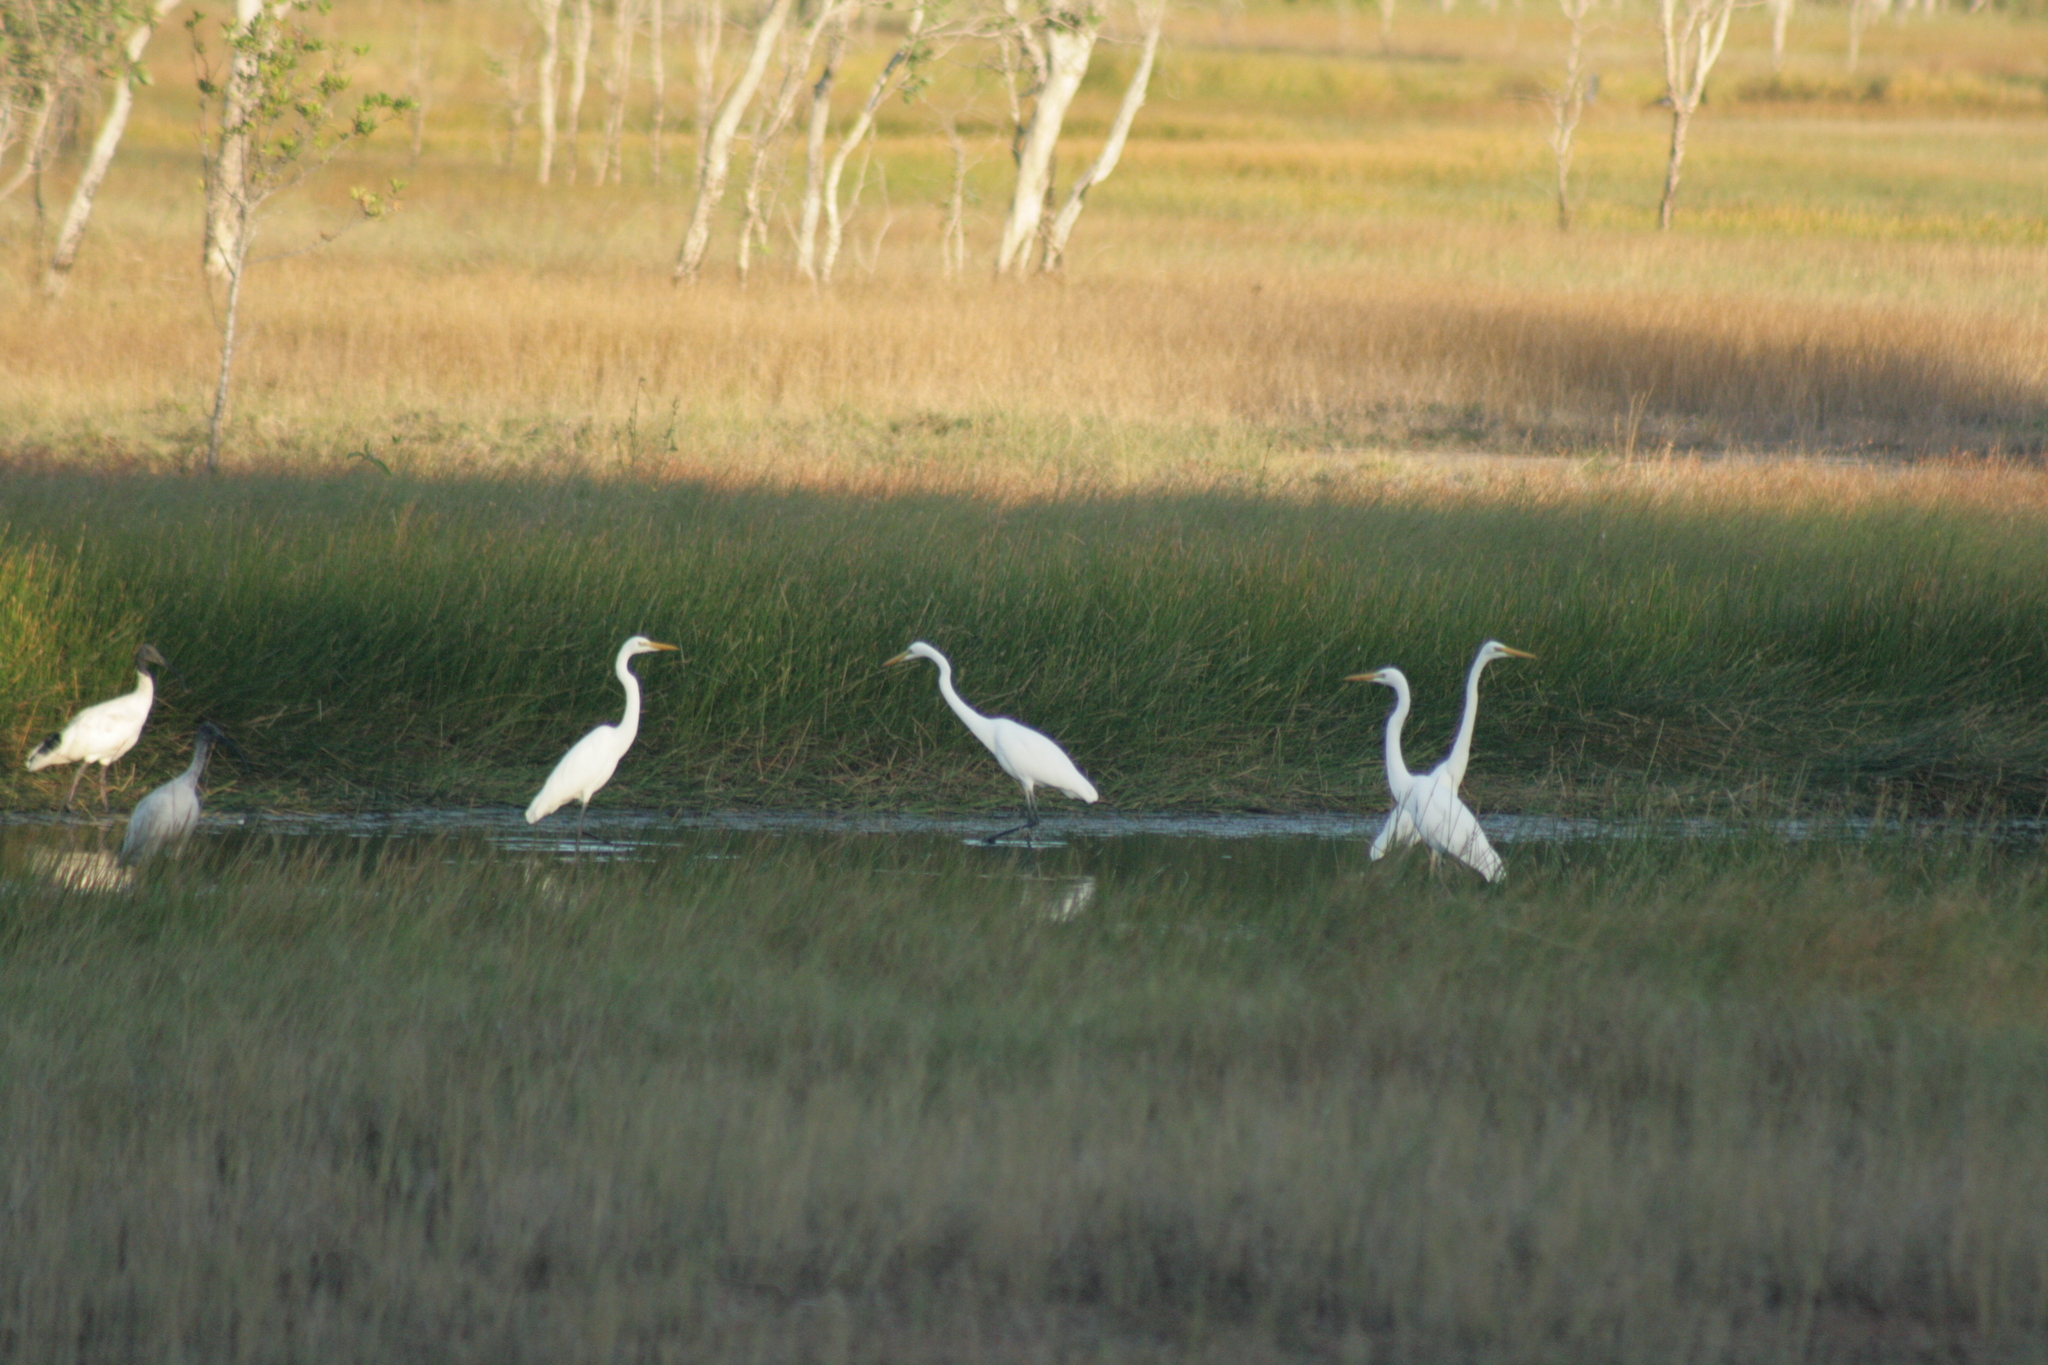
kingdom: Animalia
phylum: Chordata
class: Aves
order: Pelecaniformes
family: Ardeidae
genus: Ardea
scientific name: Ardea alba
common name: Great egret
